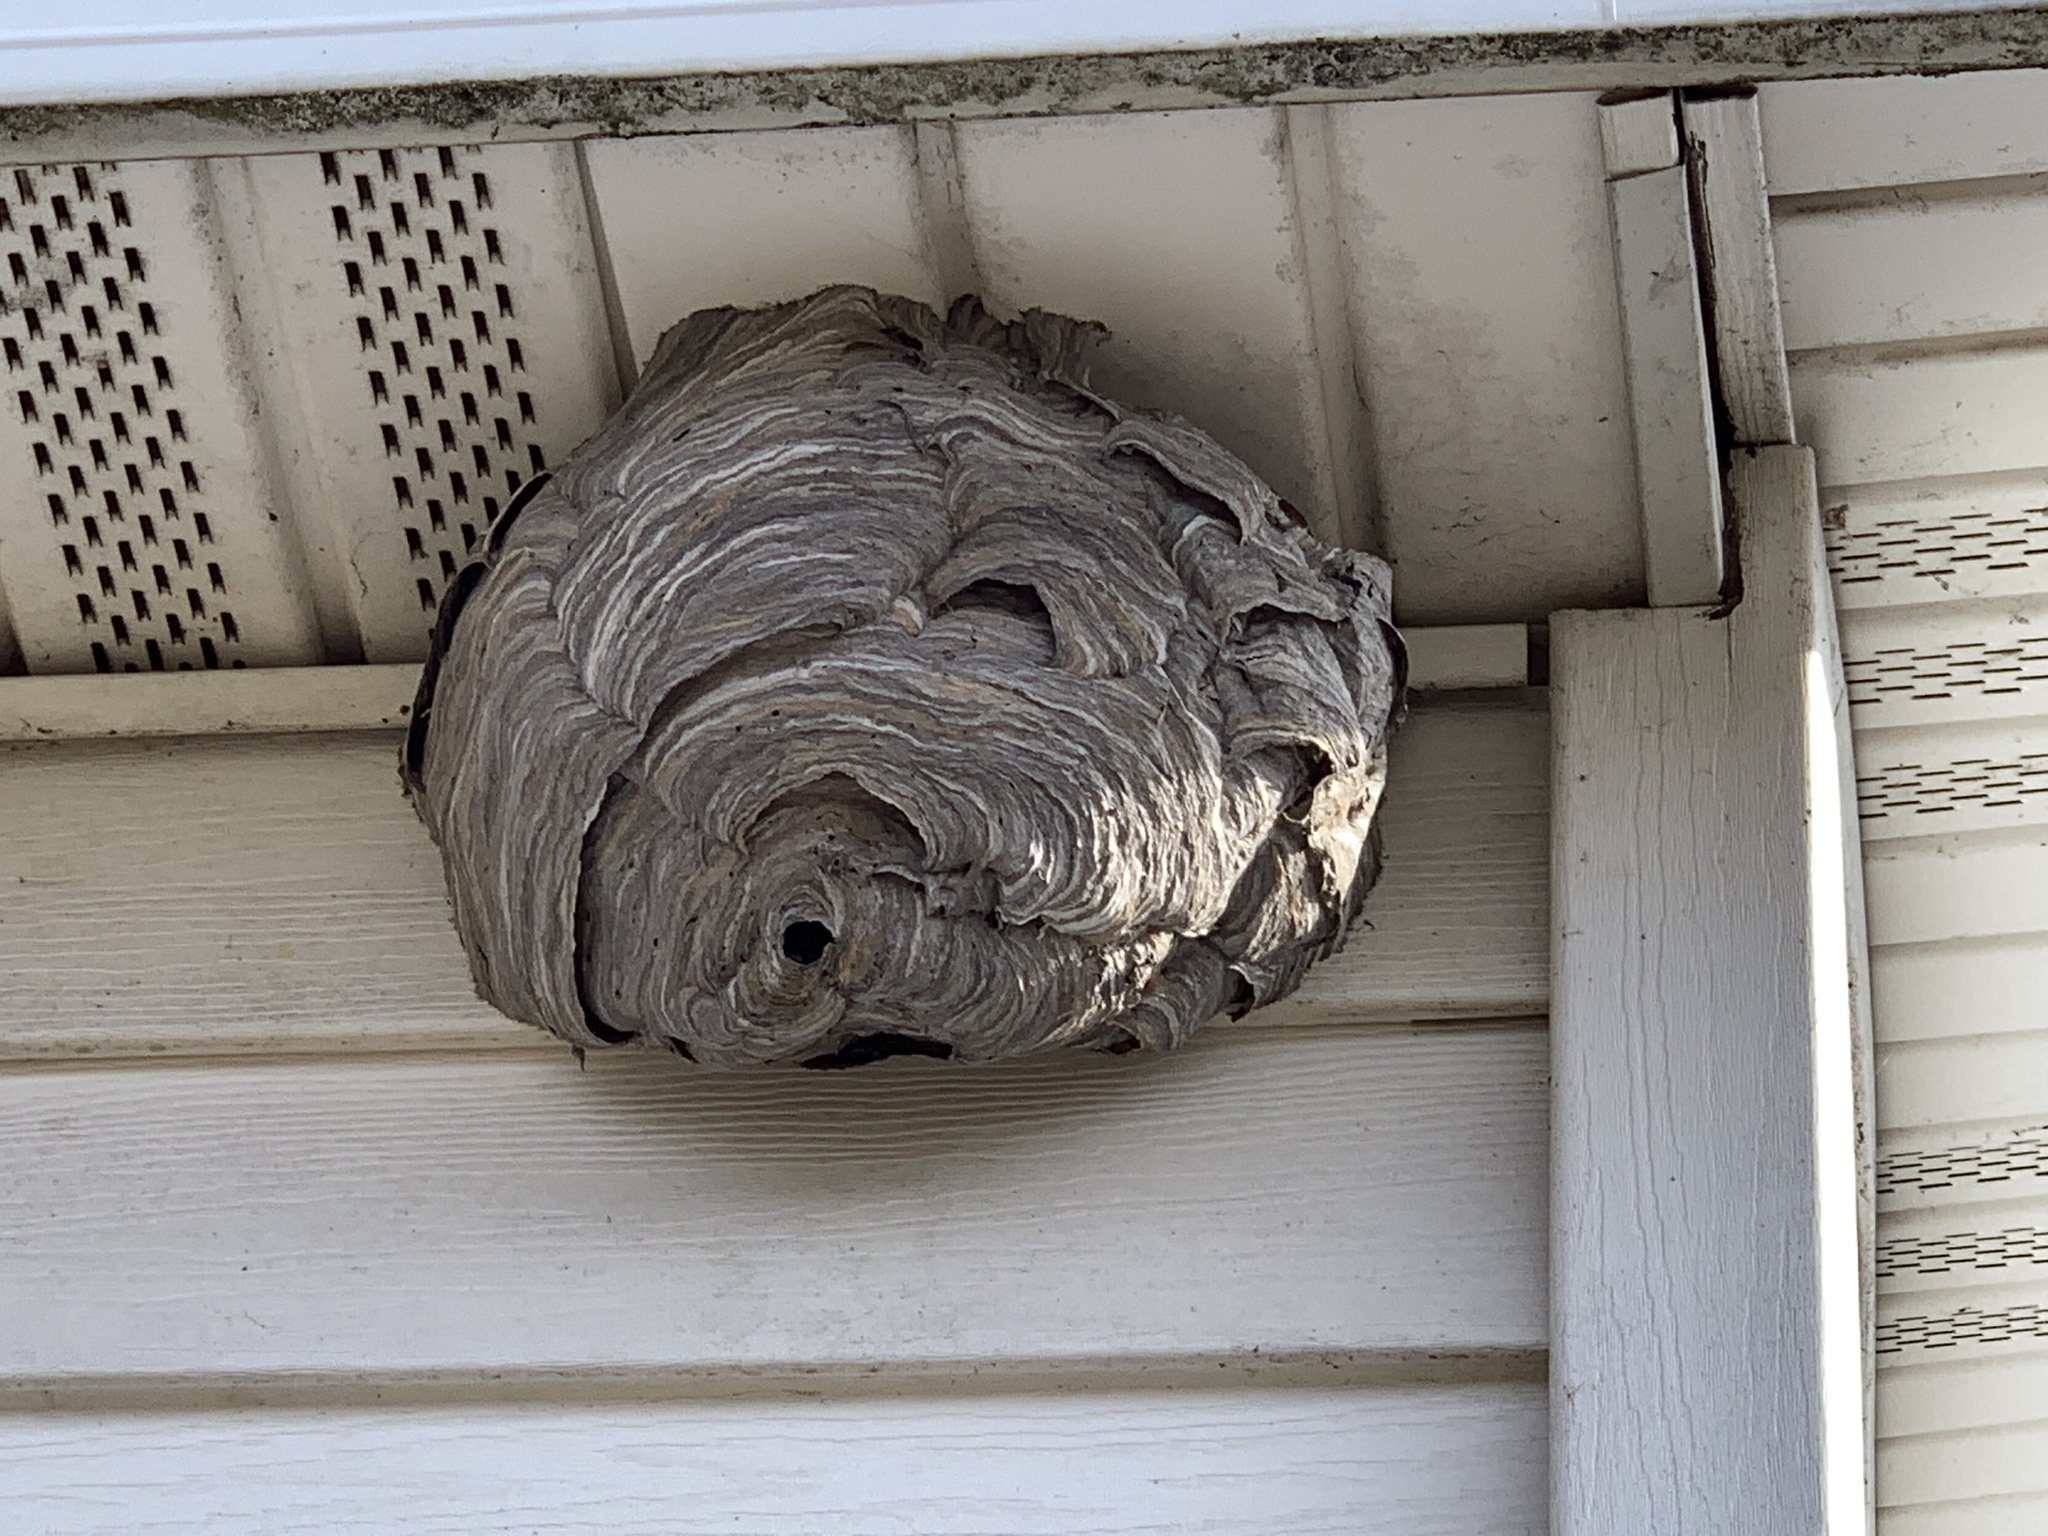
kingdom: Animalia
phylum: Arthropoda
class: Insecta
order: Hymenoptera
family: Vespidae
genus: Dolichovespula
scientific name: Dolichovespula maculata
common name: Bald-faced hornet
